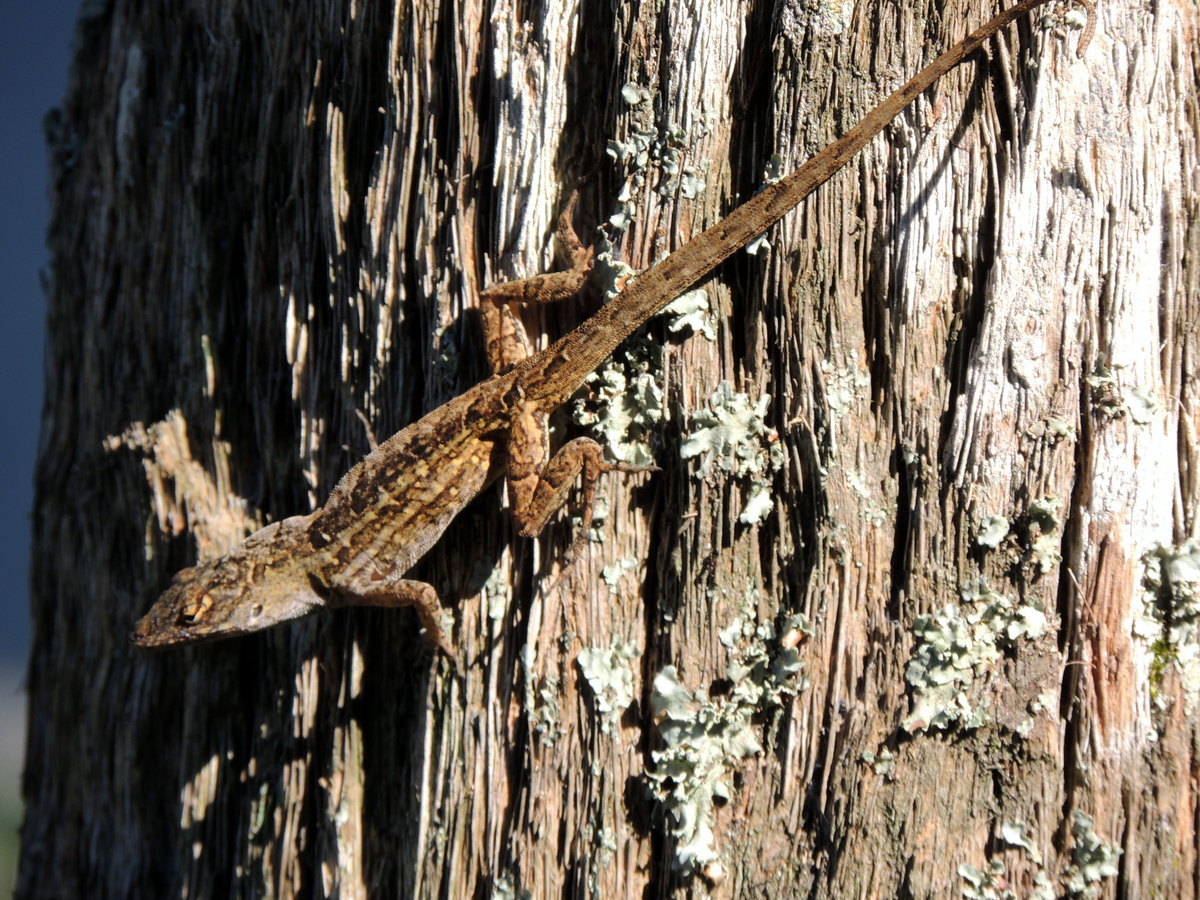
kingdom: Animalia
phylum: Chordata
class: Squamata
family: Dactyloidae
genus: Anolis
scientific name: Anolis sagrei
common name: Brown anole
